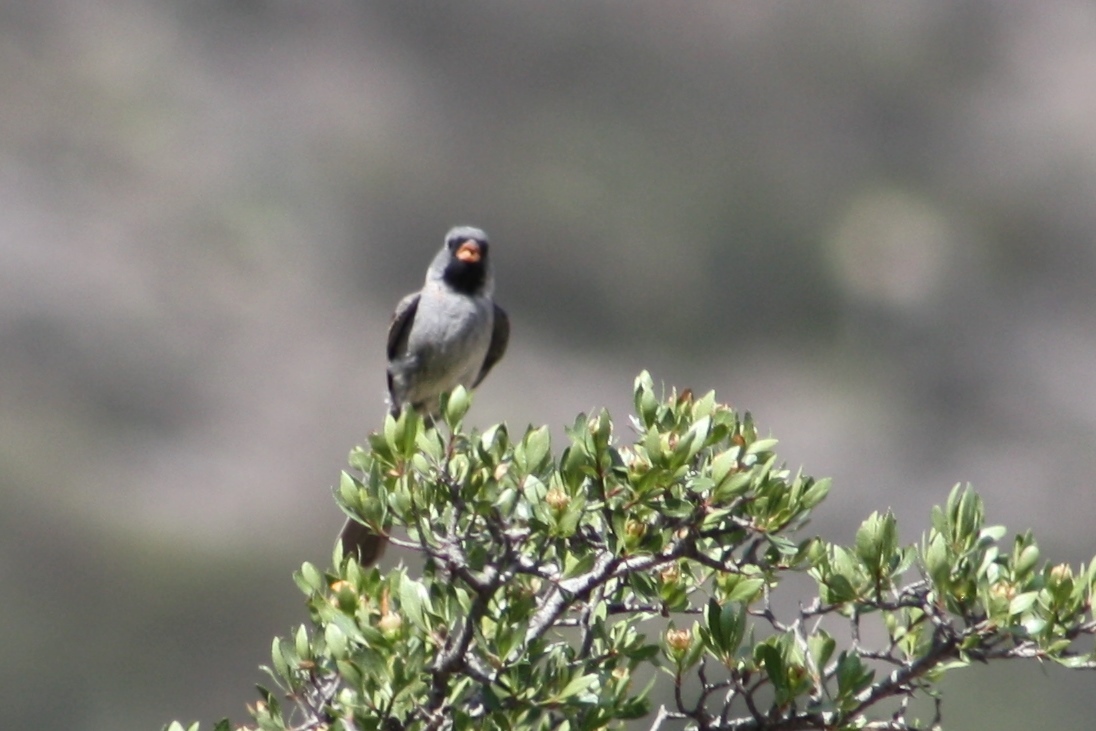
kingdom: Animalia
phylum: Chordata
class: Aves
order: Passeriformes
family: Passerellidae
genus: Spizella
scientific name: Spizella atrogularis
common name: Black-chinned sparrow
